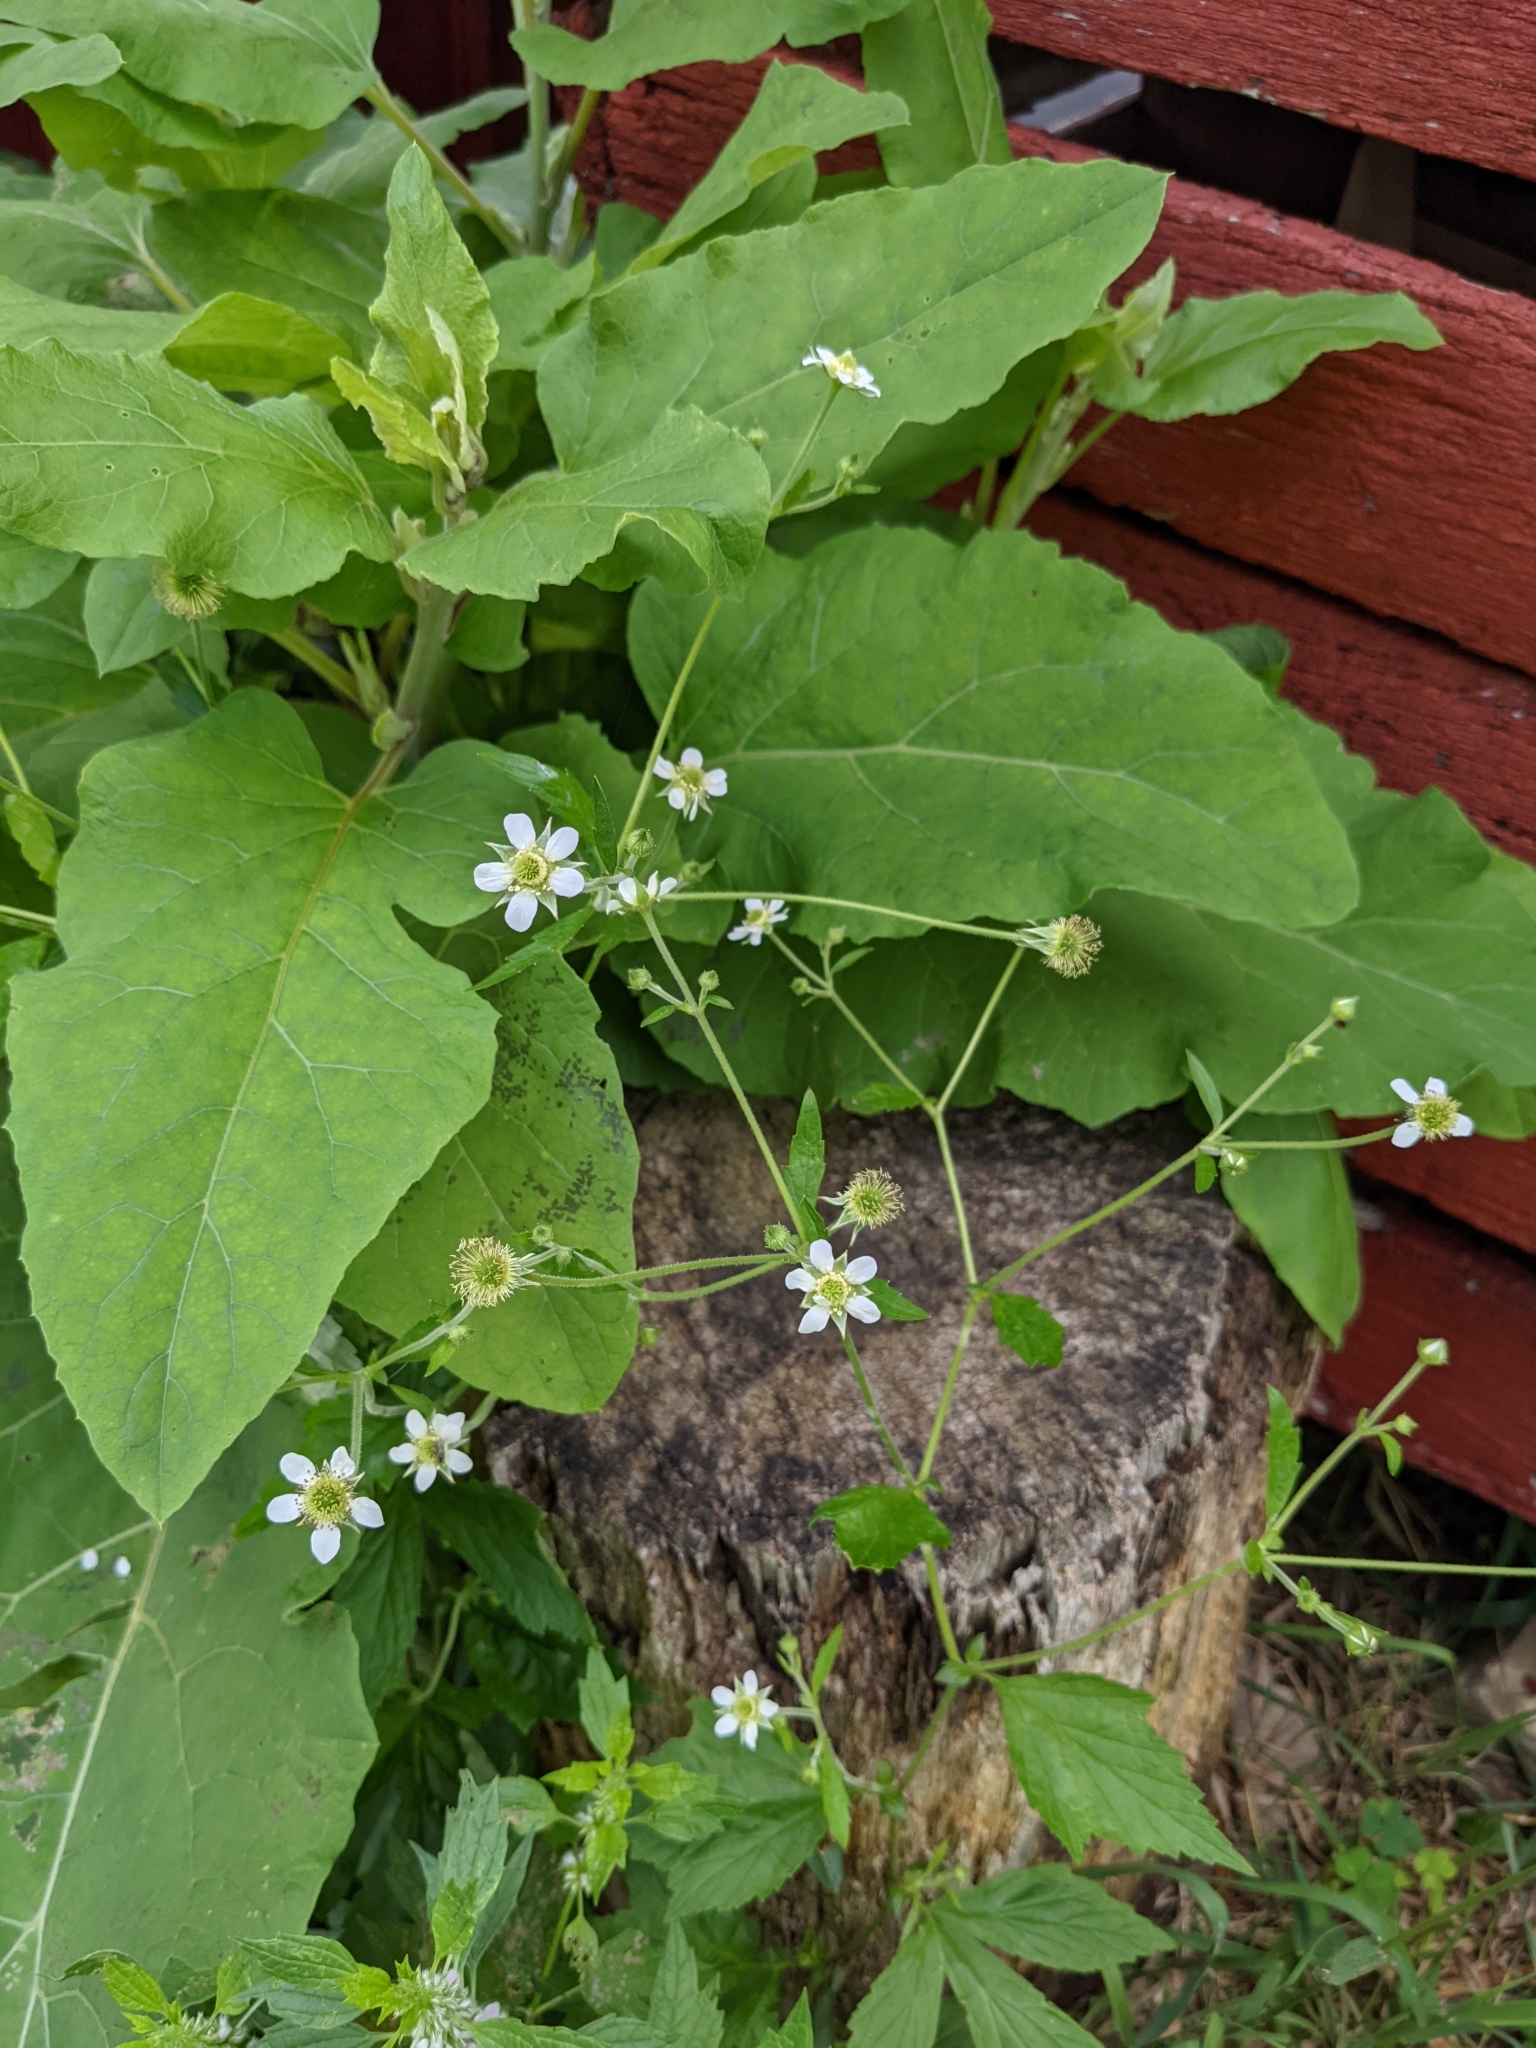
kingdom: Plantae
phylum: Tracheophyta
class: Magnoliopsida
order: Rosales
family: Rosaceae
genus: Geum
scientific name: Geum canadense
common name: White avens
